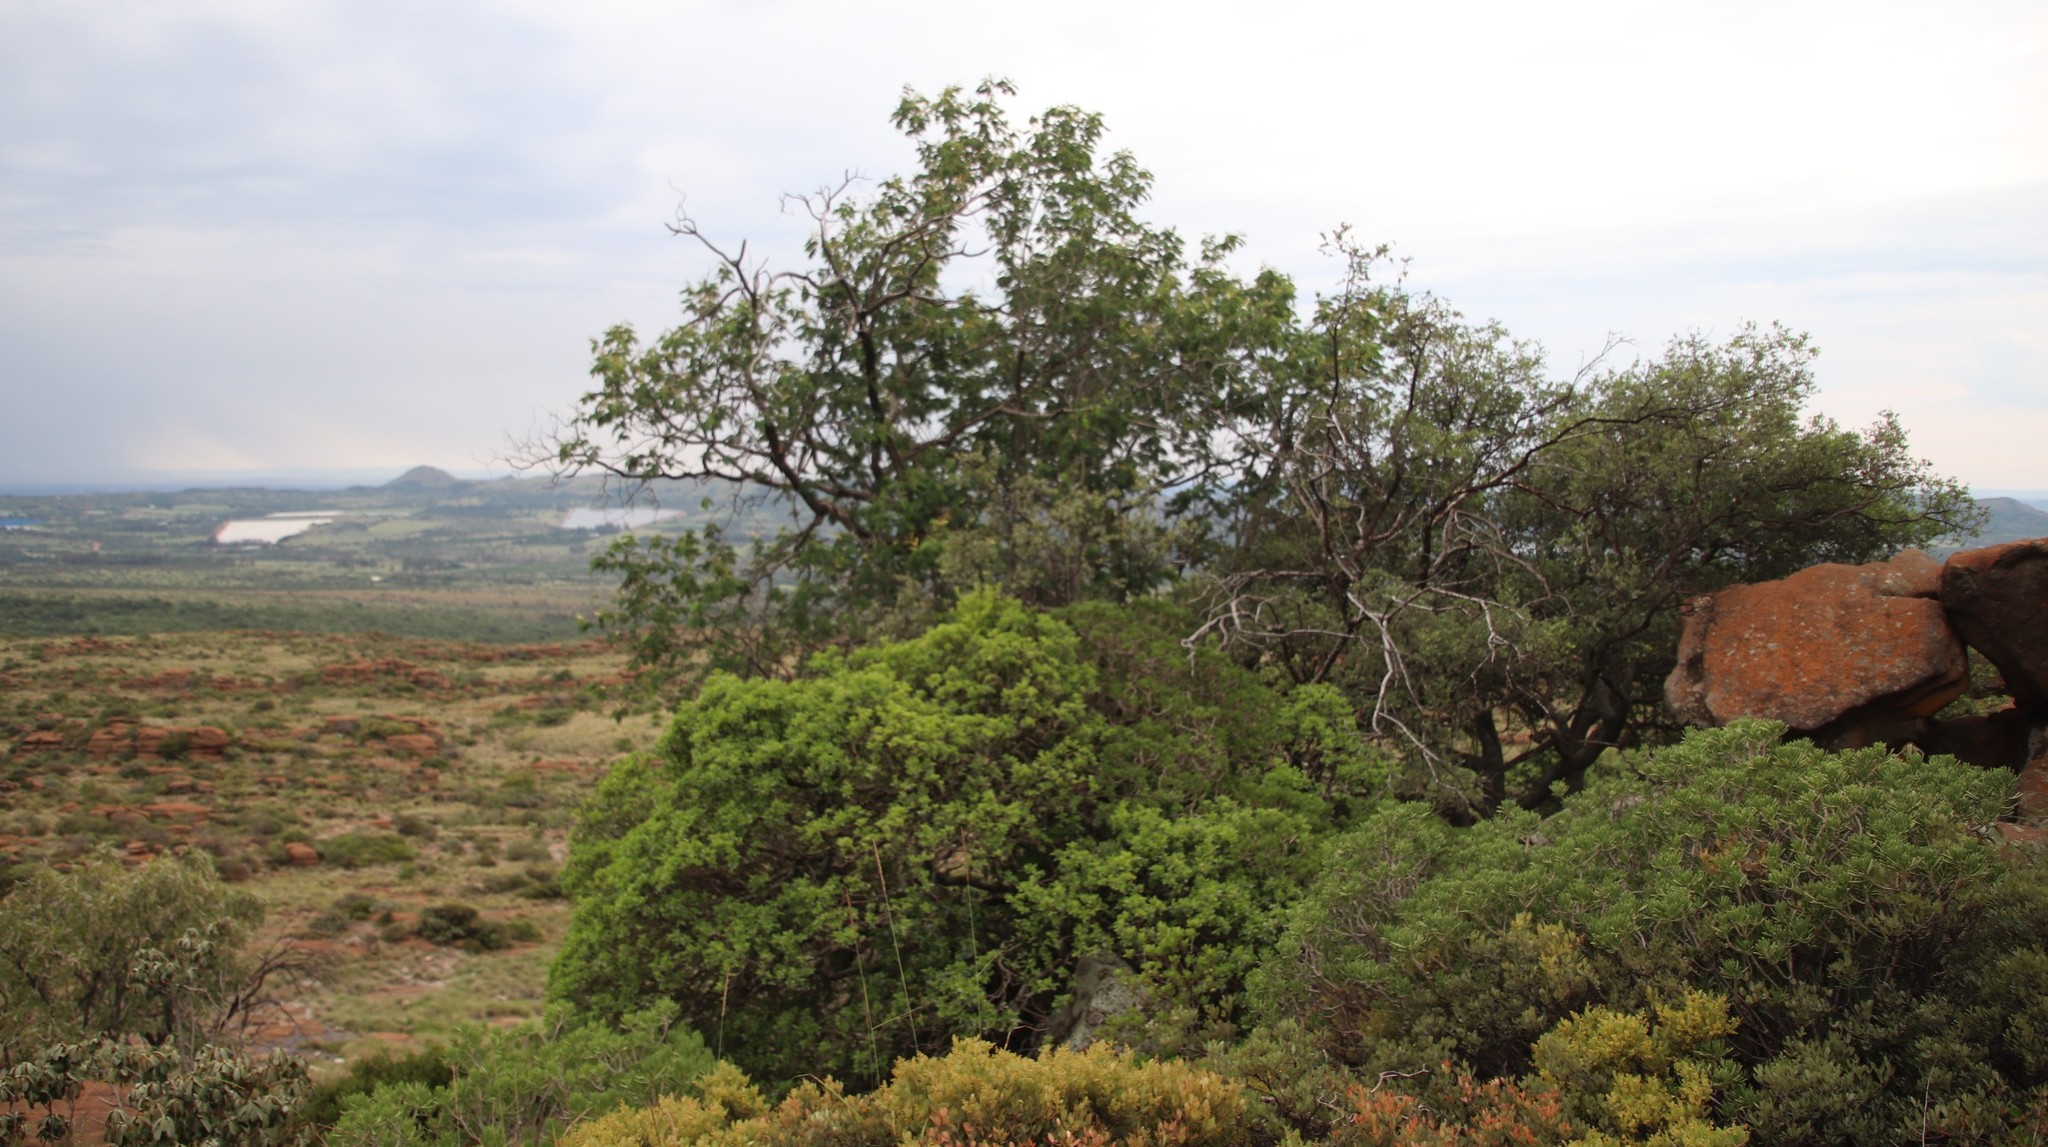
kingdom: Plantae
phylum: Tracheophyta
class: Magnoliopsida
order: Fabales
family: Fabaceae
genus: Senegalia
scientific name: Senegalia ataxacantha
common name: Flame acacia
